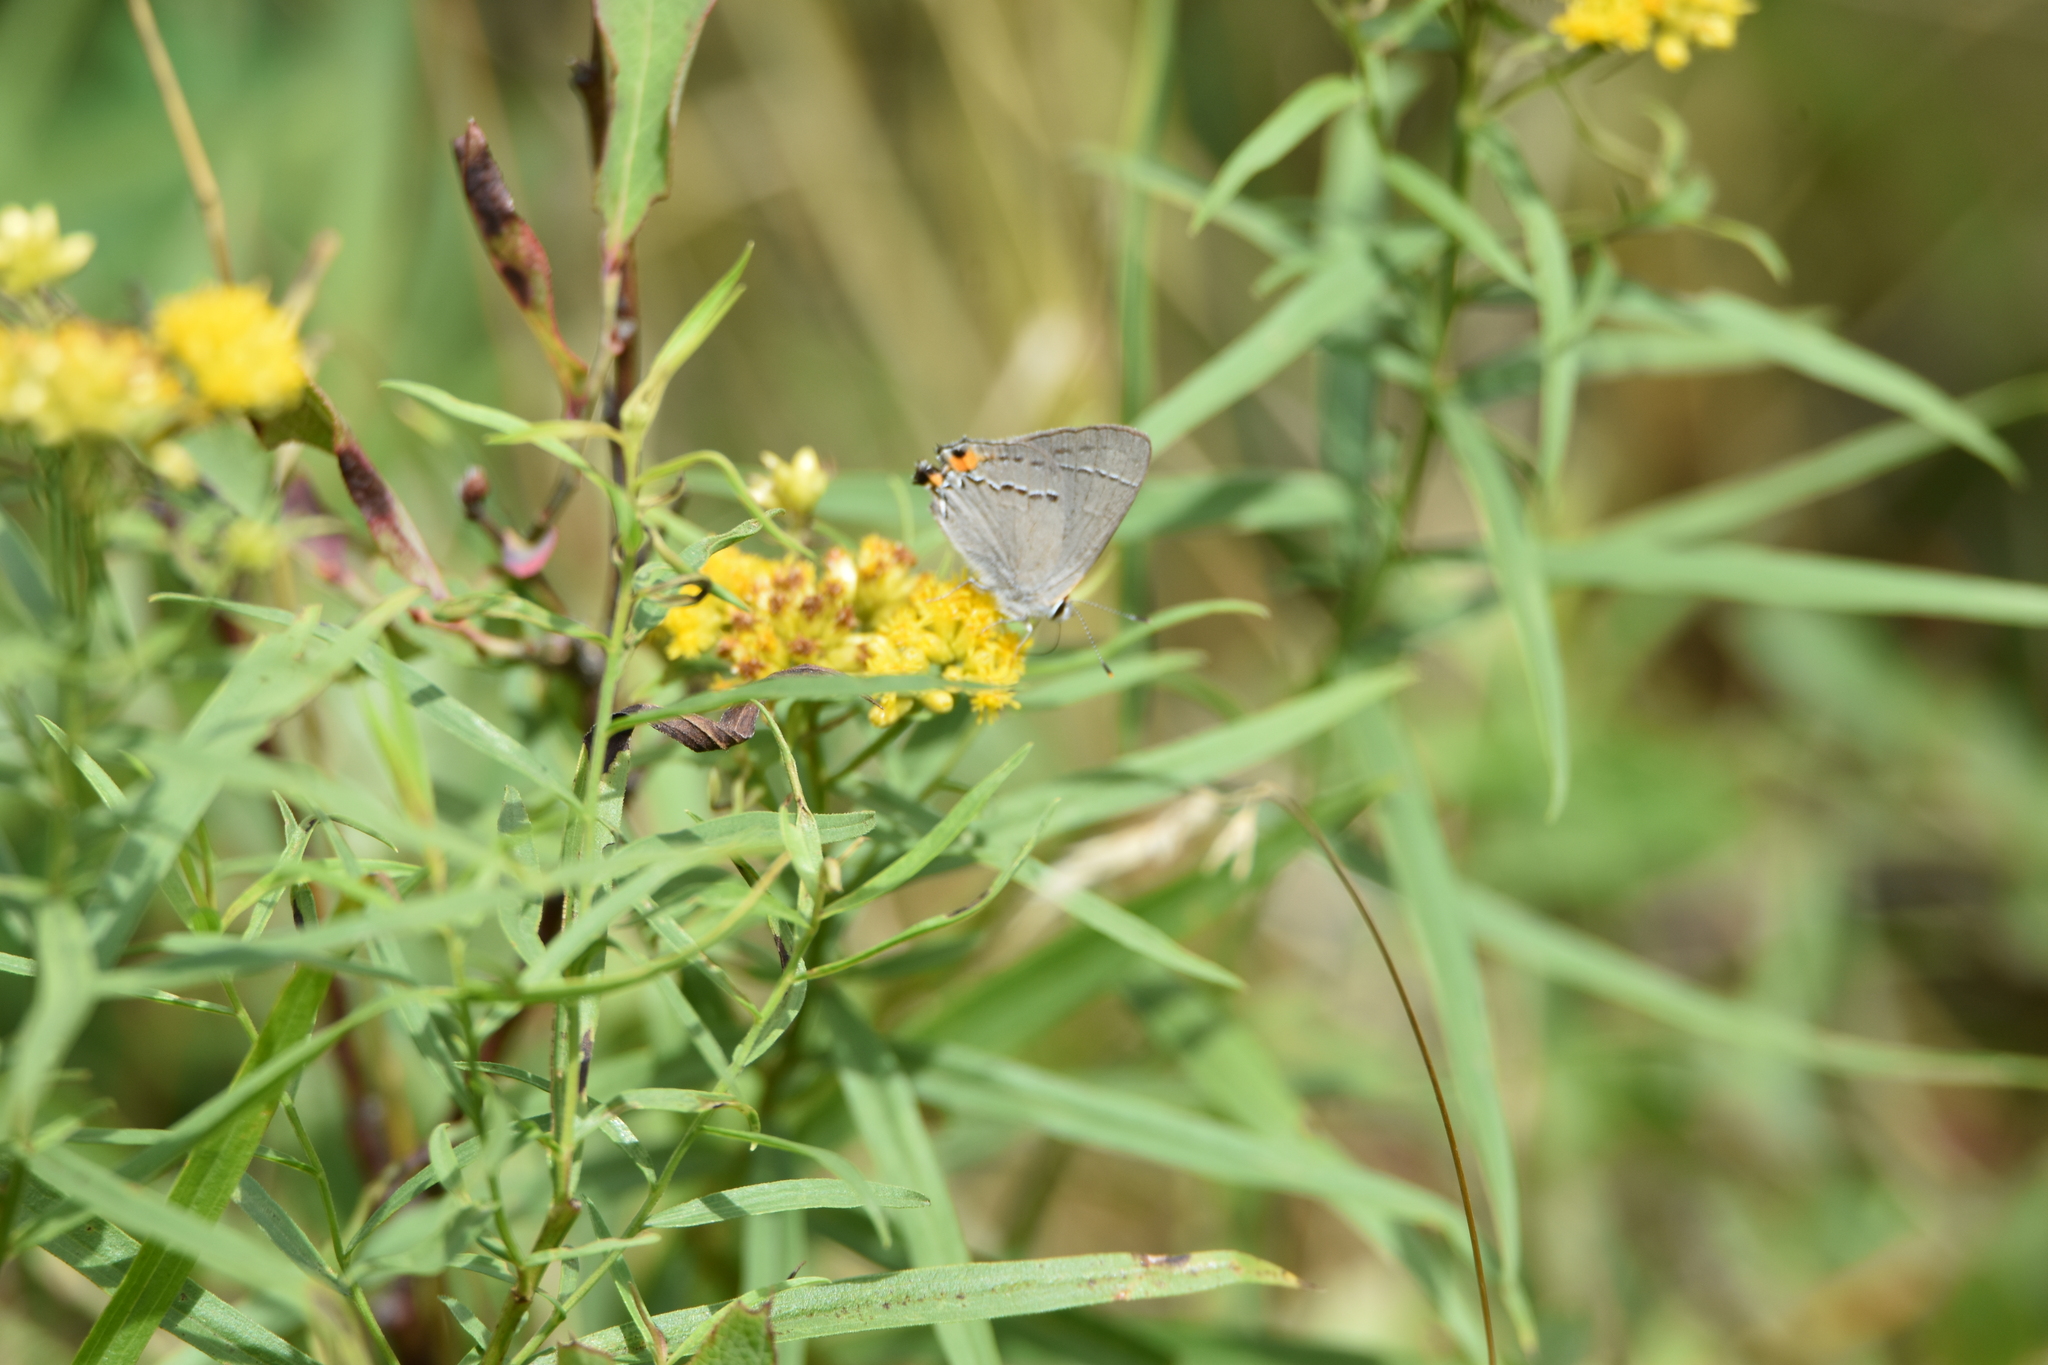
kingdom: Animalia
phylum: Arthropoda
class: Insecta
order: Lepidoptera
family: Lycaenidae
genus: Strymon
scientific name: Strymon melinus
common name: Gray hairstreak
